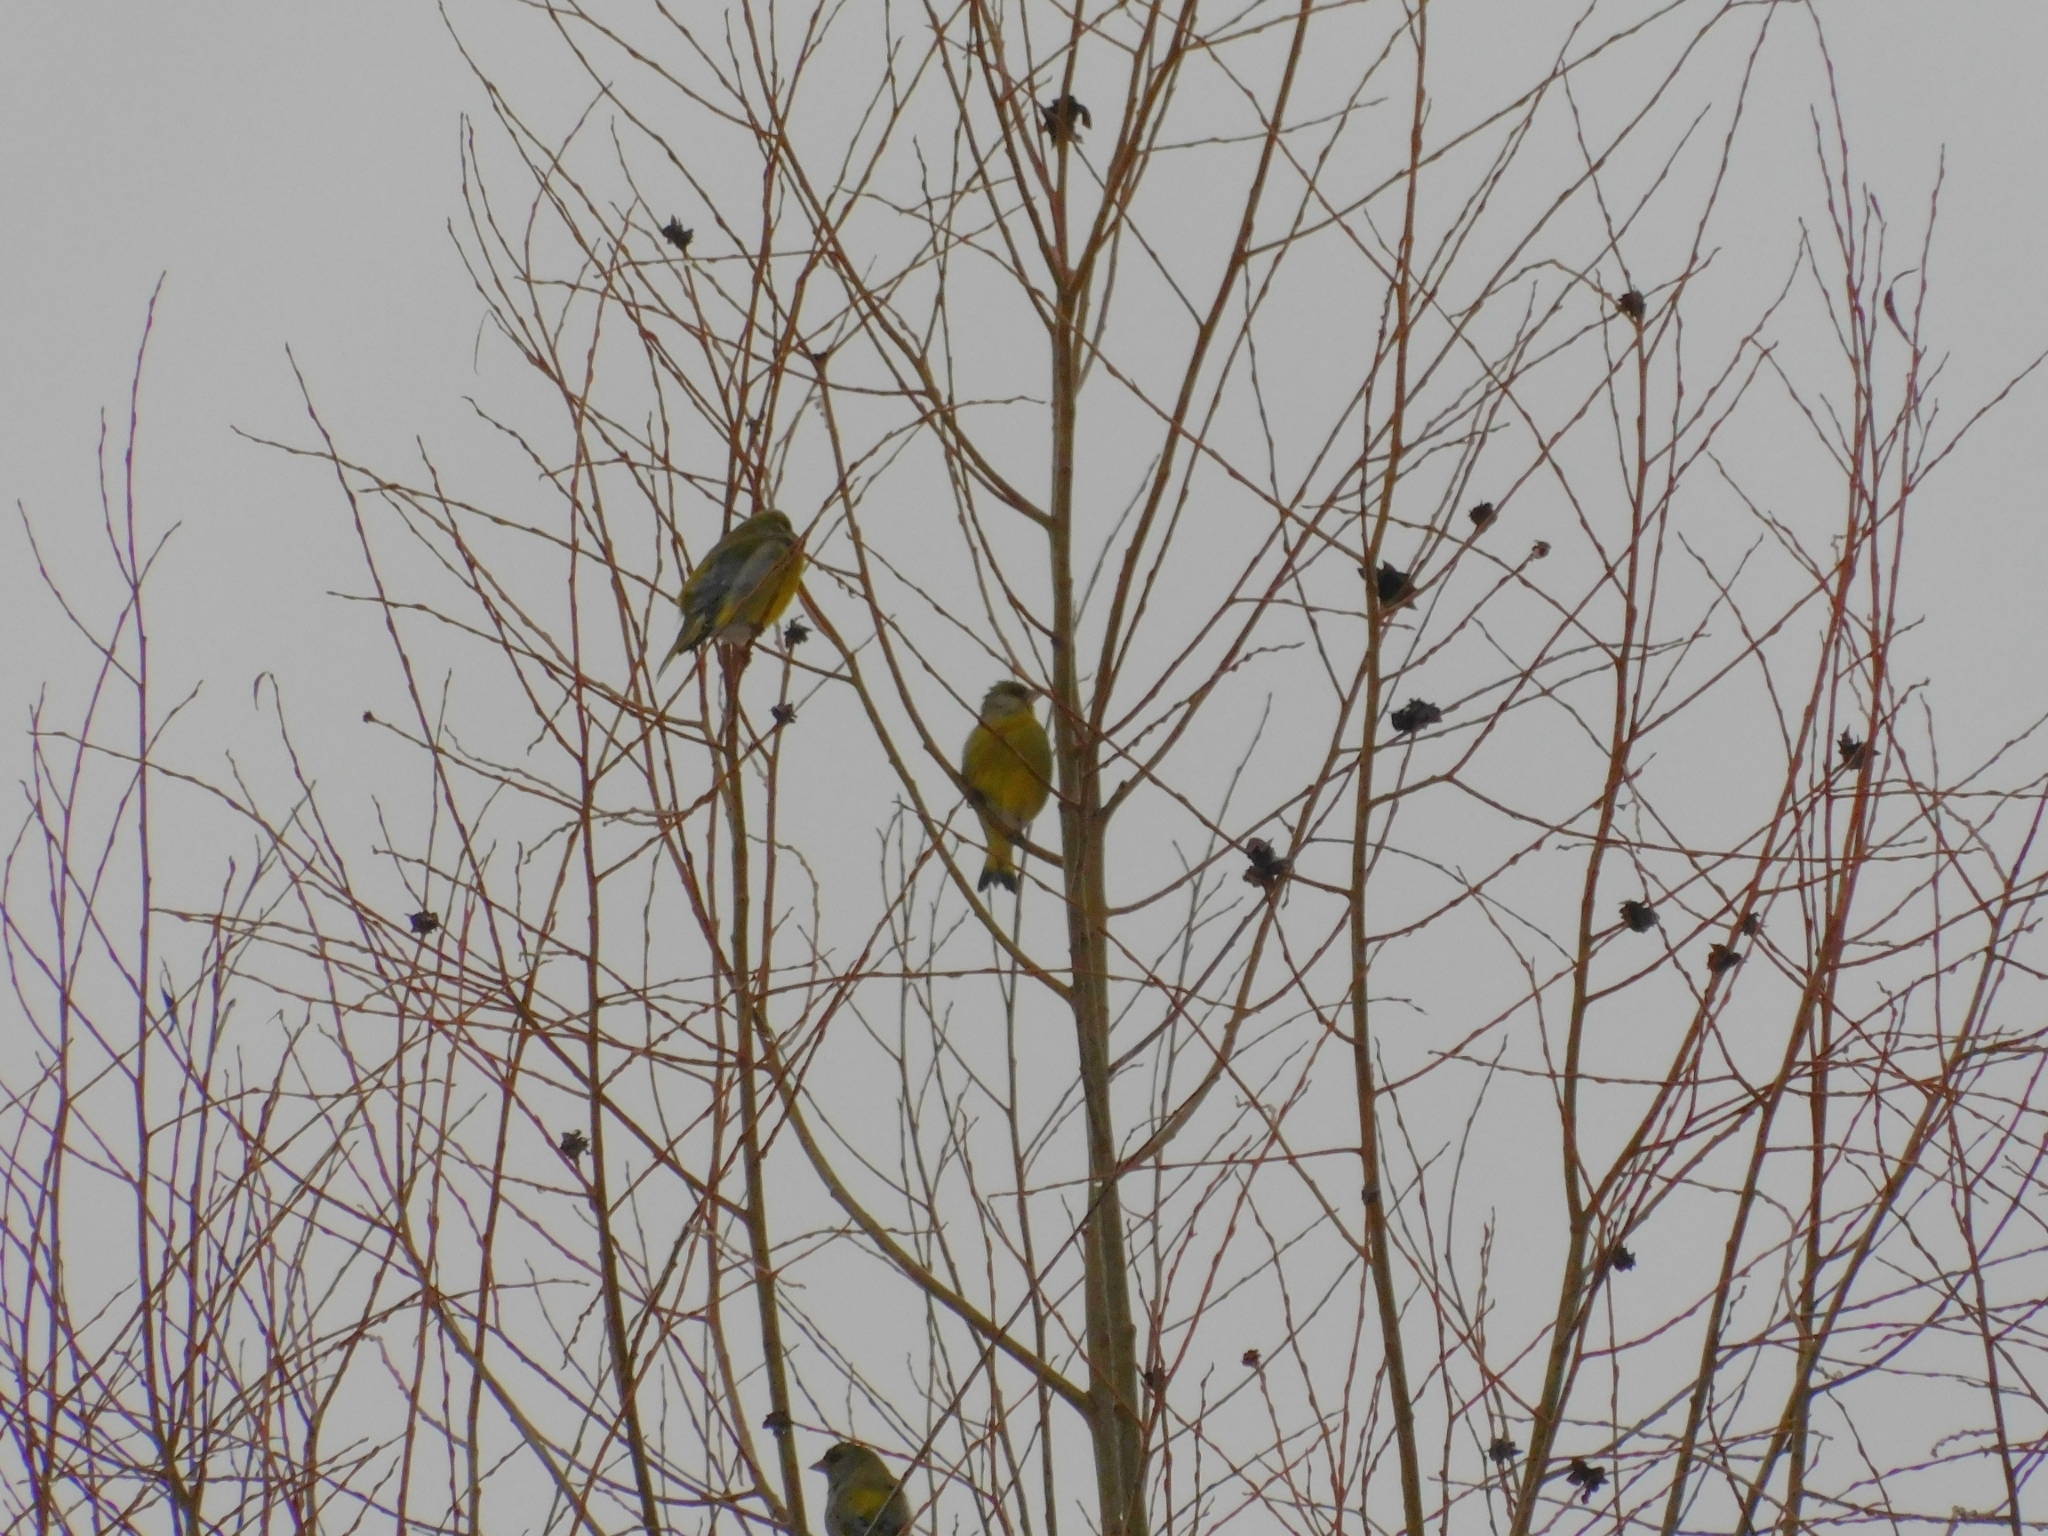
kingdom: Plantae
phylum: Tracheophyta
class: Liliopsida
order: Poales
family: Poaceae
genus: Chloris
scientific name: Chloris chloris
